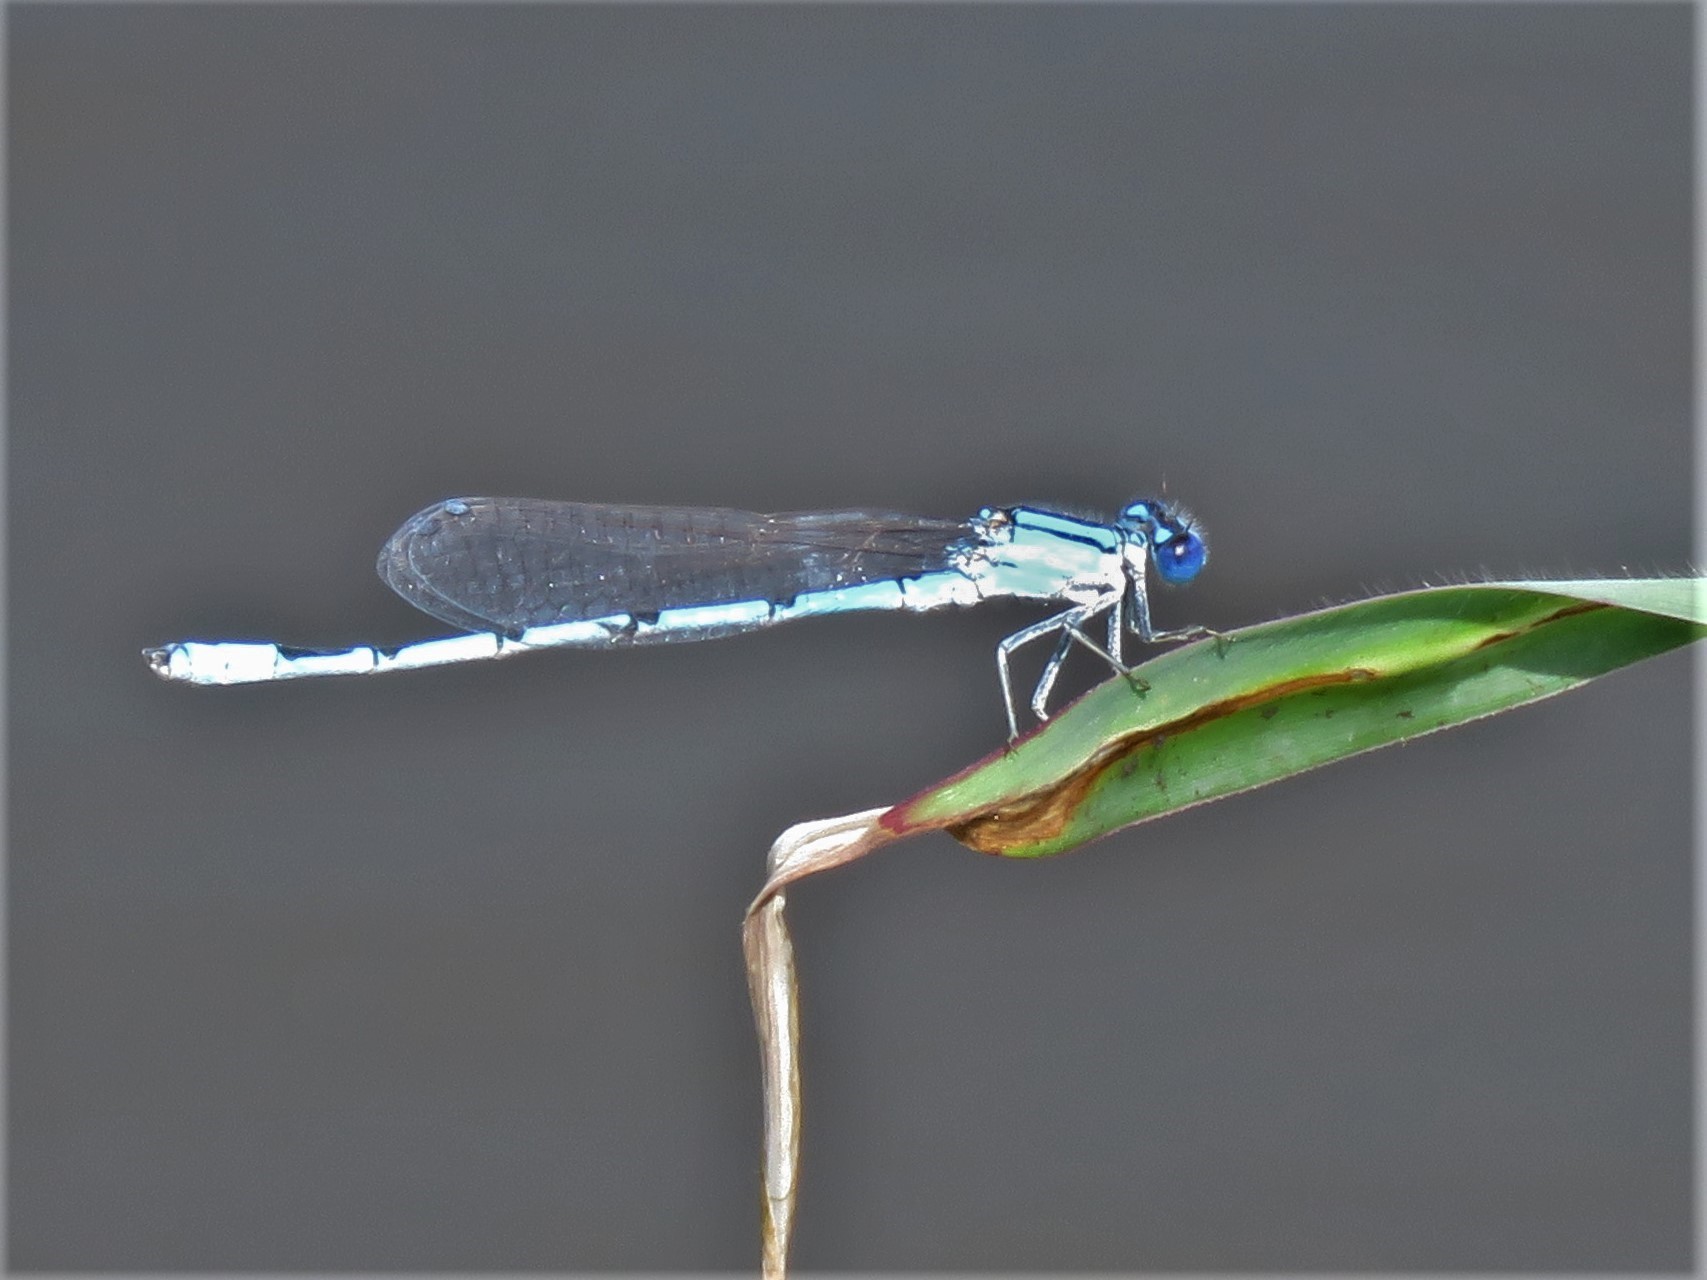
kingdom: Animalia
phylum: Arthropoda
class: Insecta
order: Odonata
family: Coenagrionidae
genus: Enallagma
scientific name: Enallagma civile
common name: Damselfly
